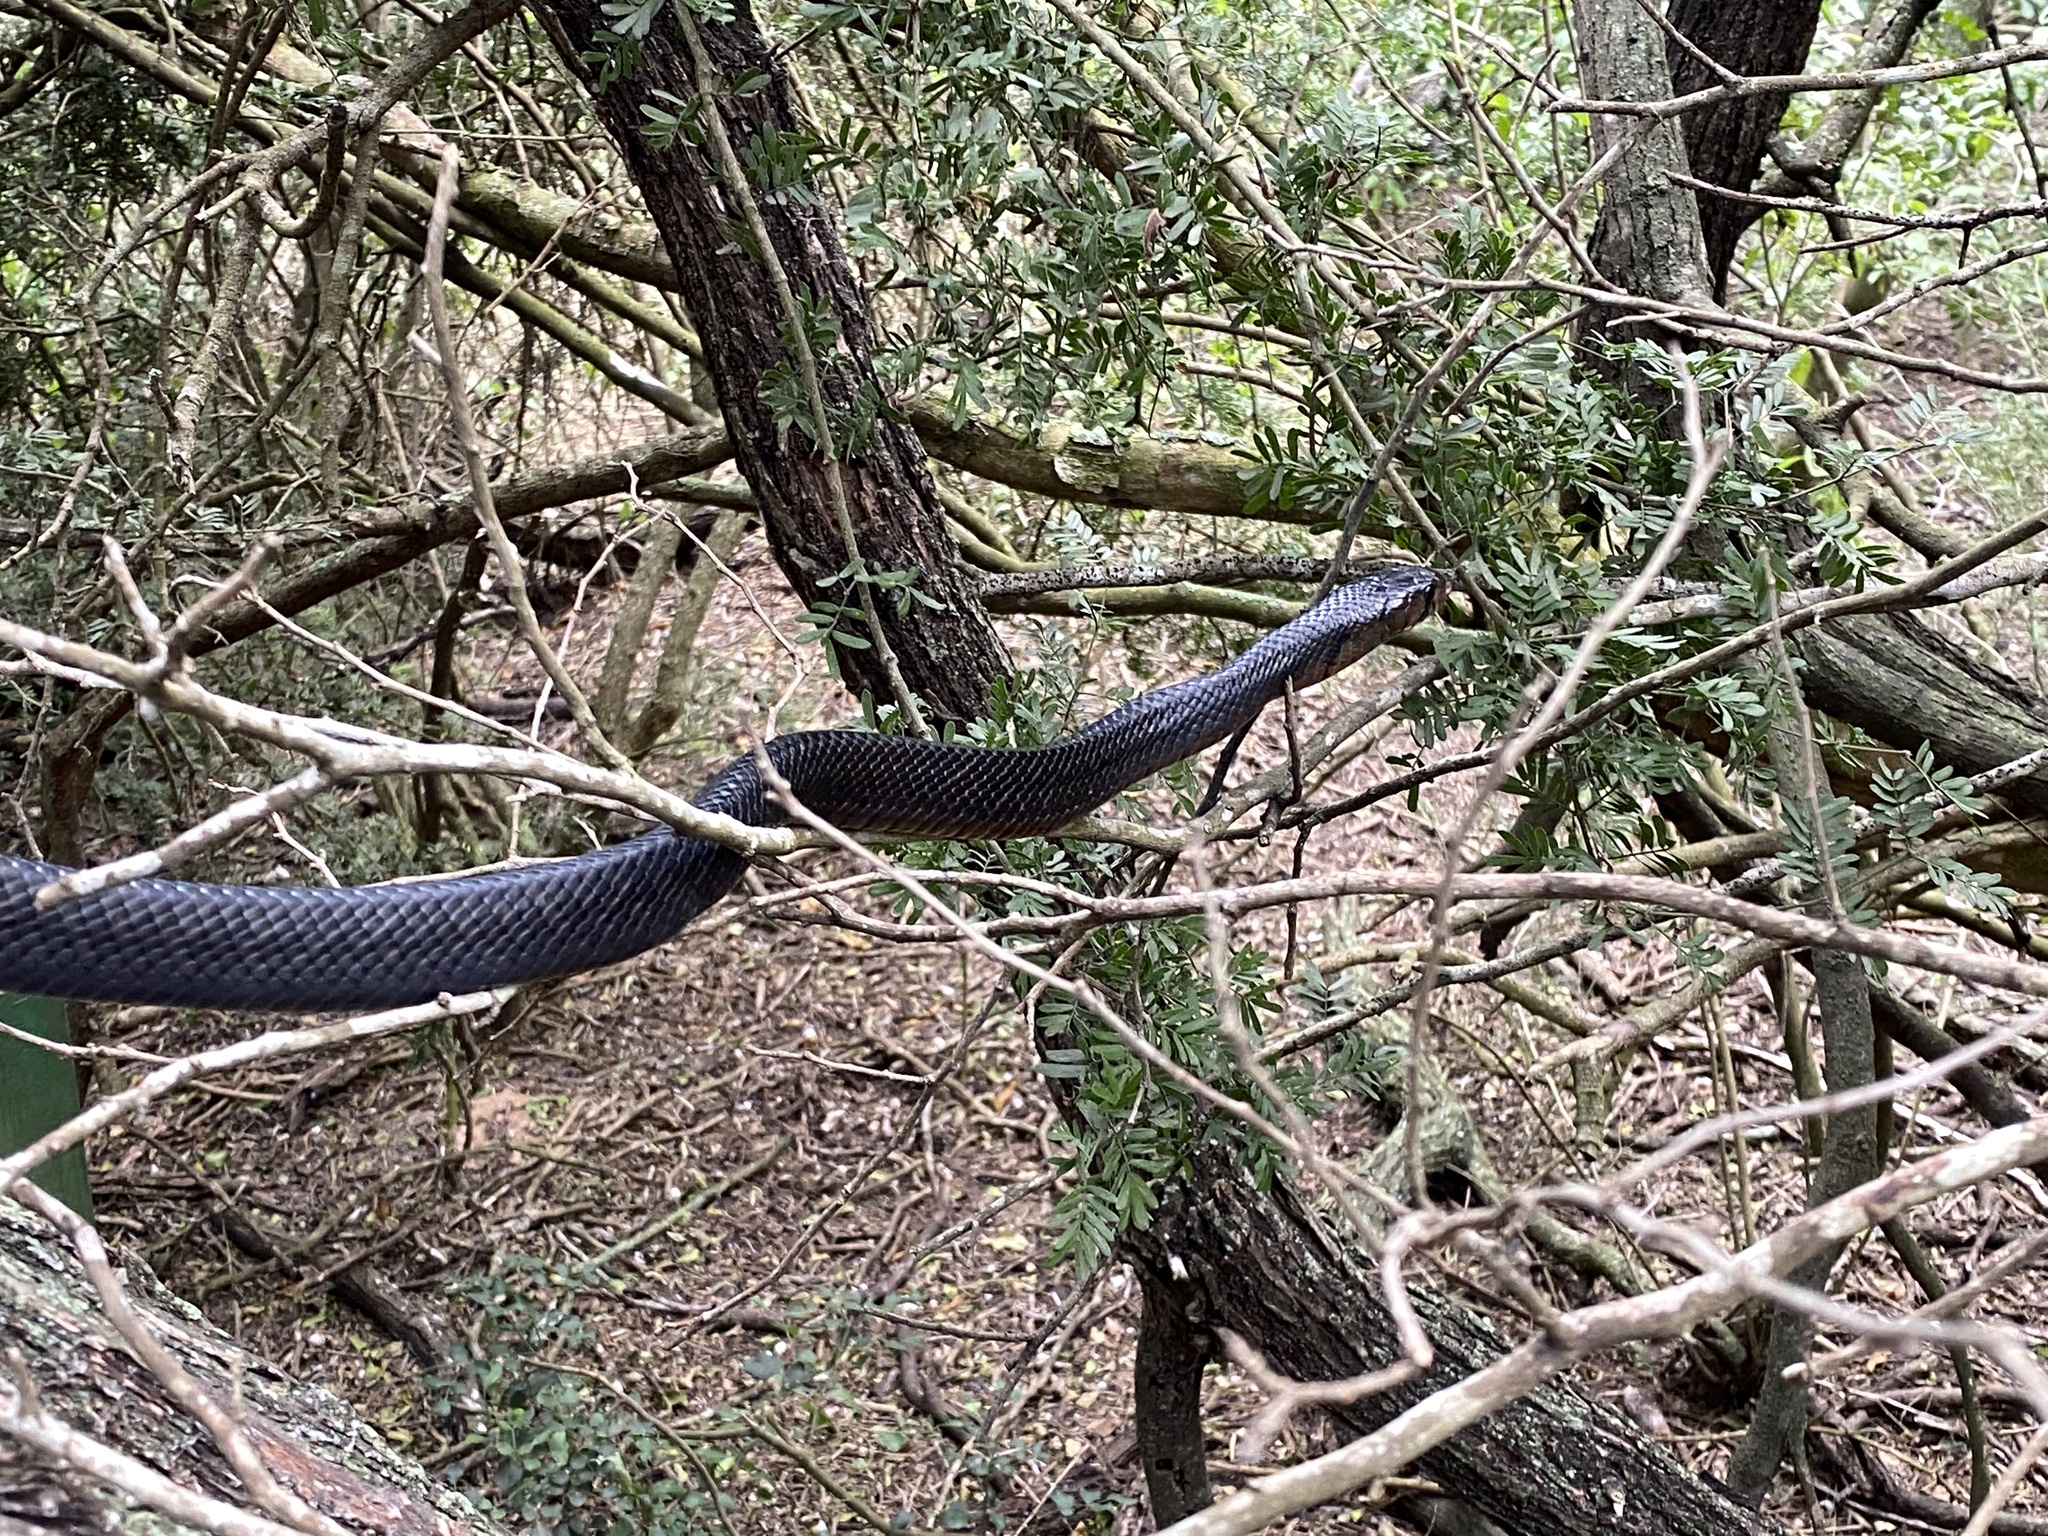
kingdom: Animalia
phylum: Chordata
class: Squamata
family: Colubridae
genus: Drymarchon
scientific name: Drymarchon melanurus
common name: Central american indigo snake
